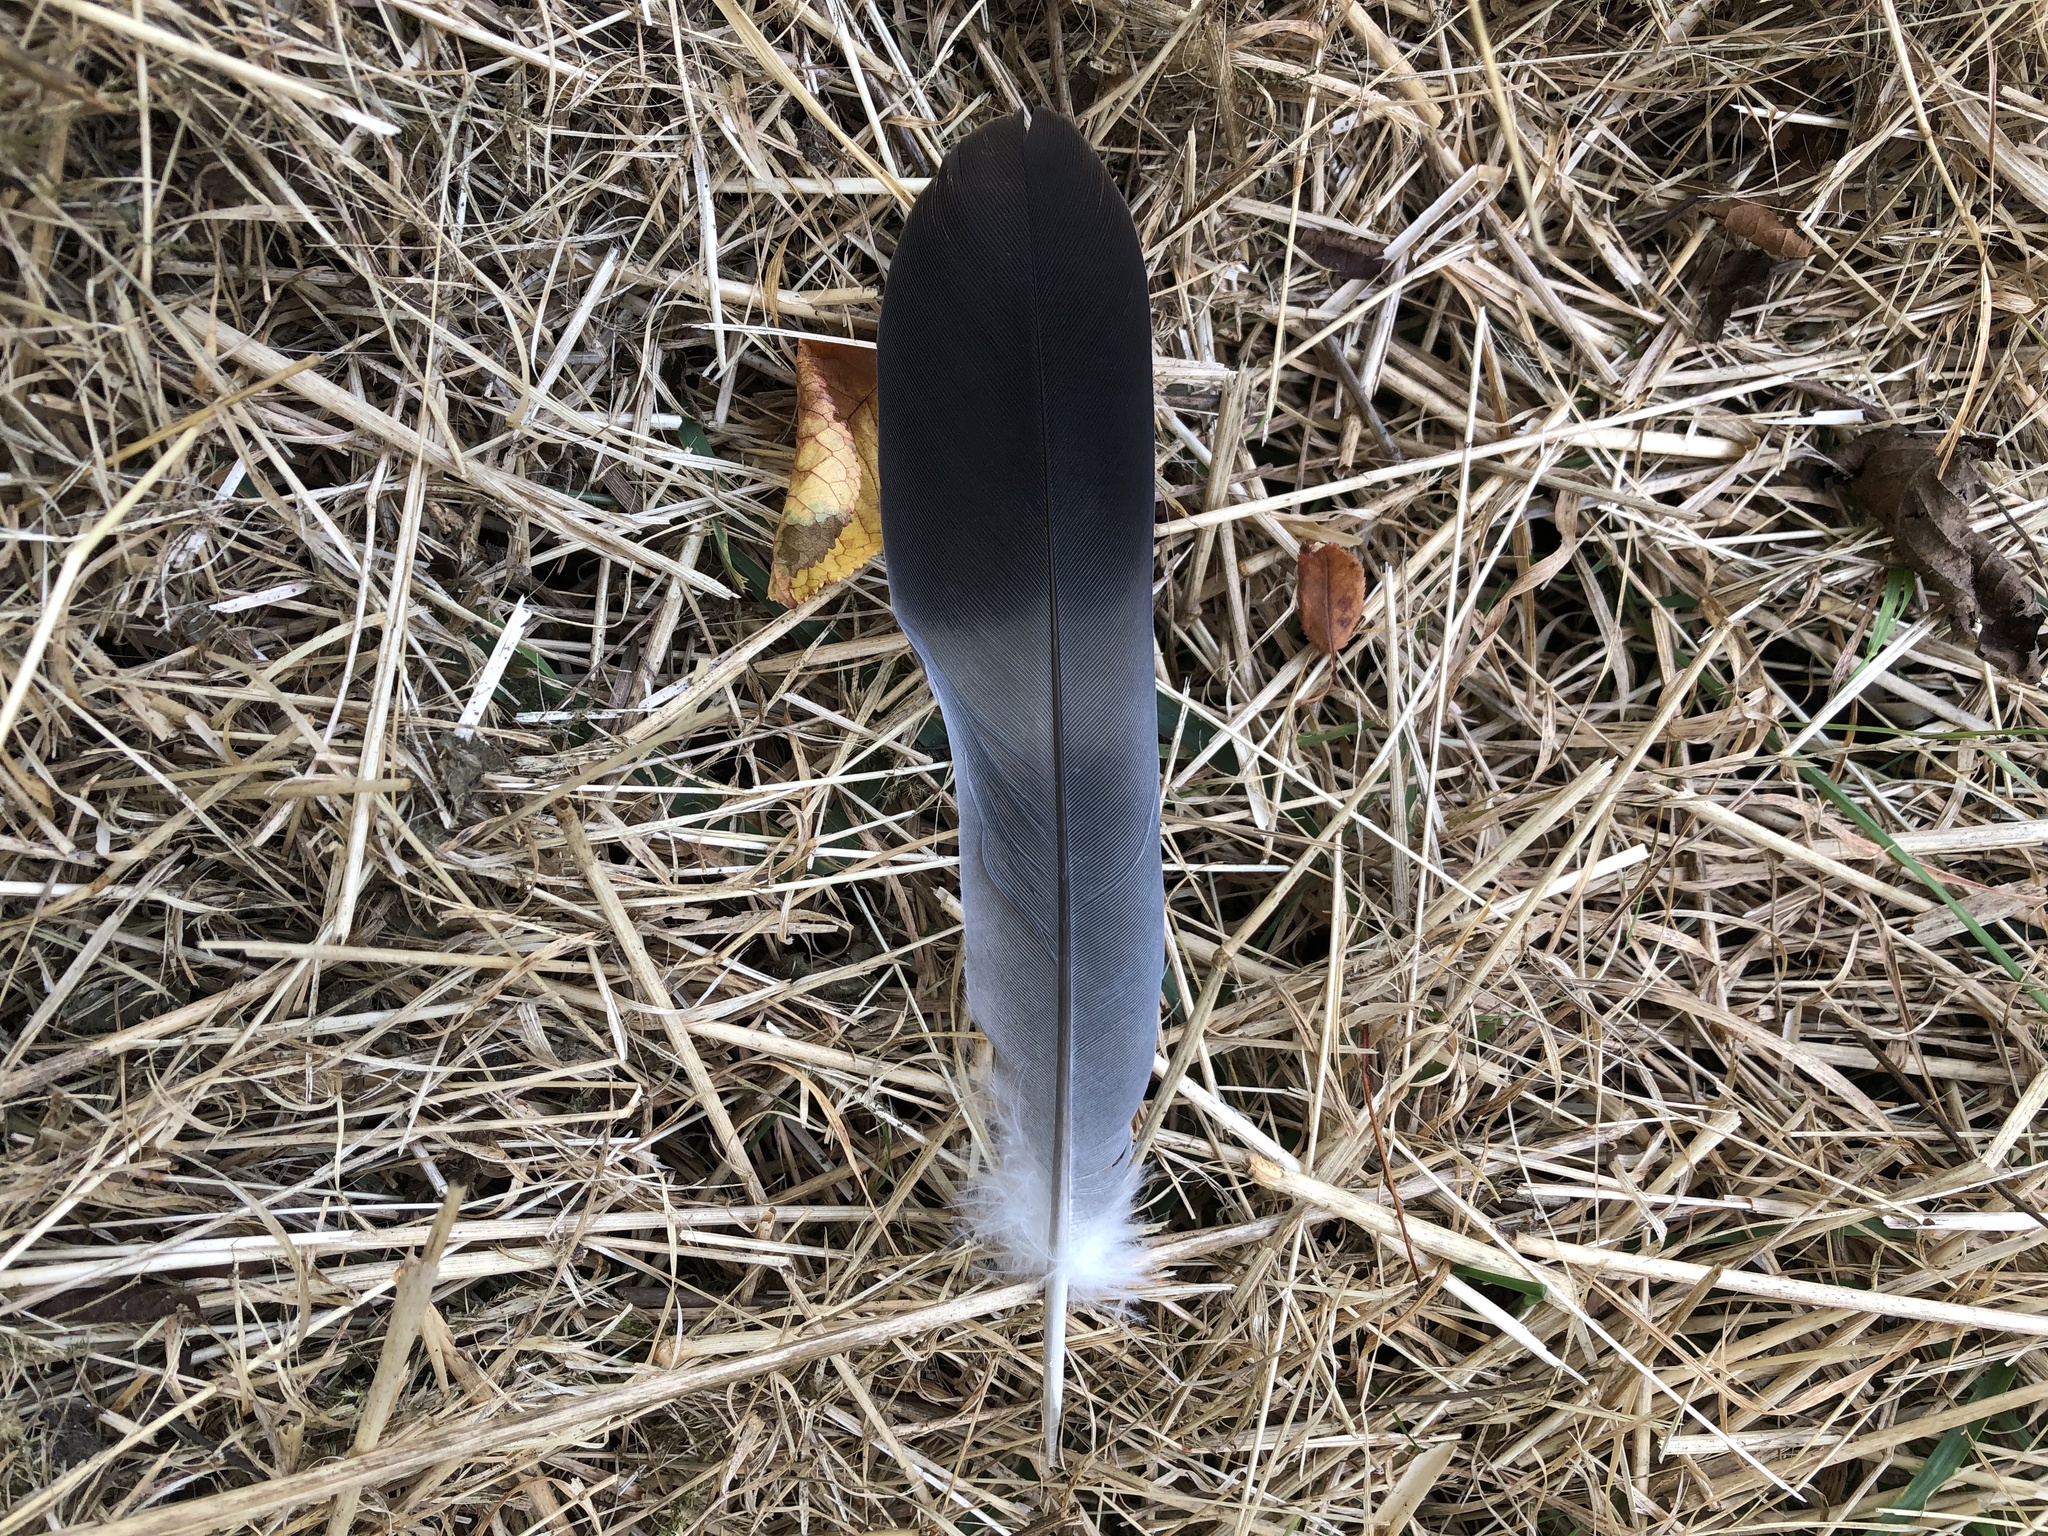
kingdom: Animalia
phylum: Chordata
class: Aves
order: Columbiformes
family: Columbidae
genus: Columba
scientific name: Columba palumbus
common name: Common wood pigeon
